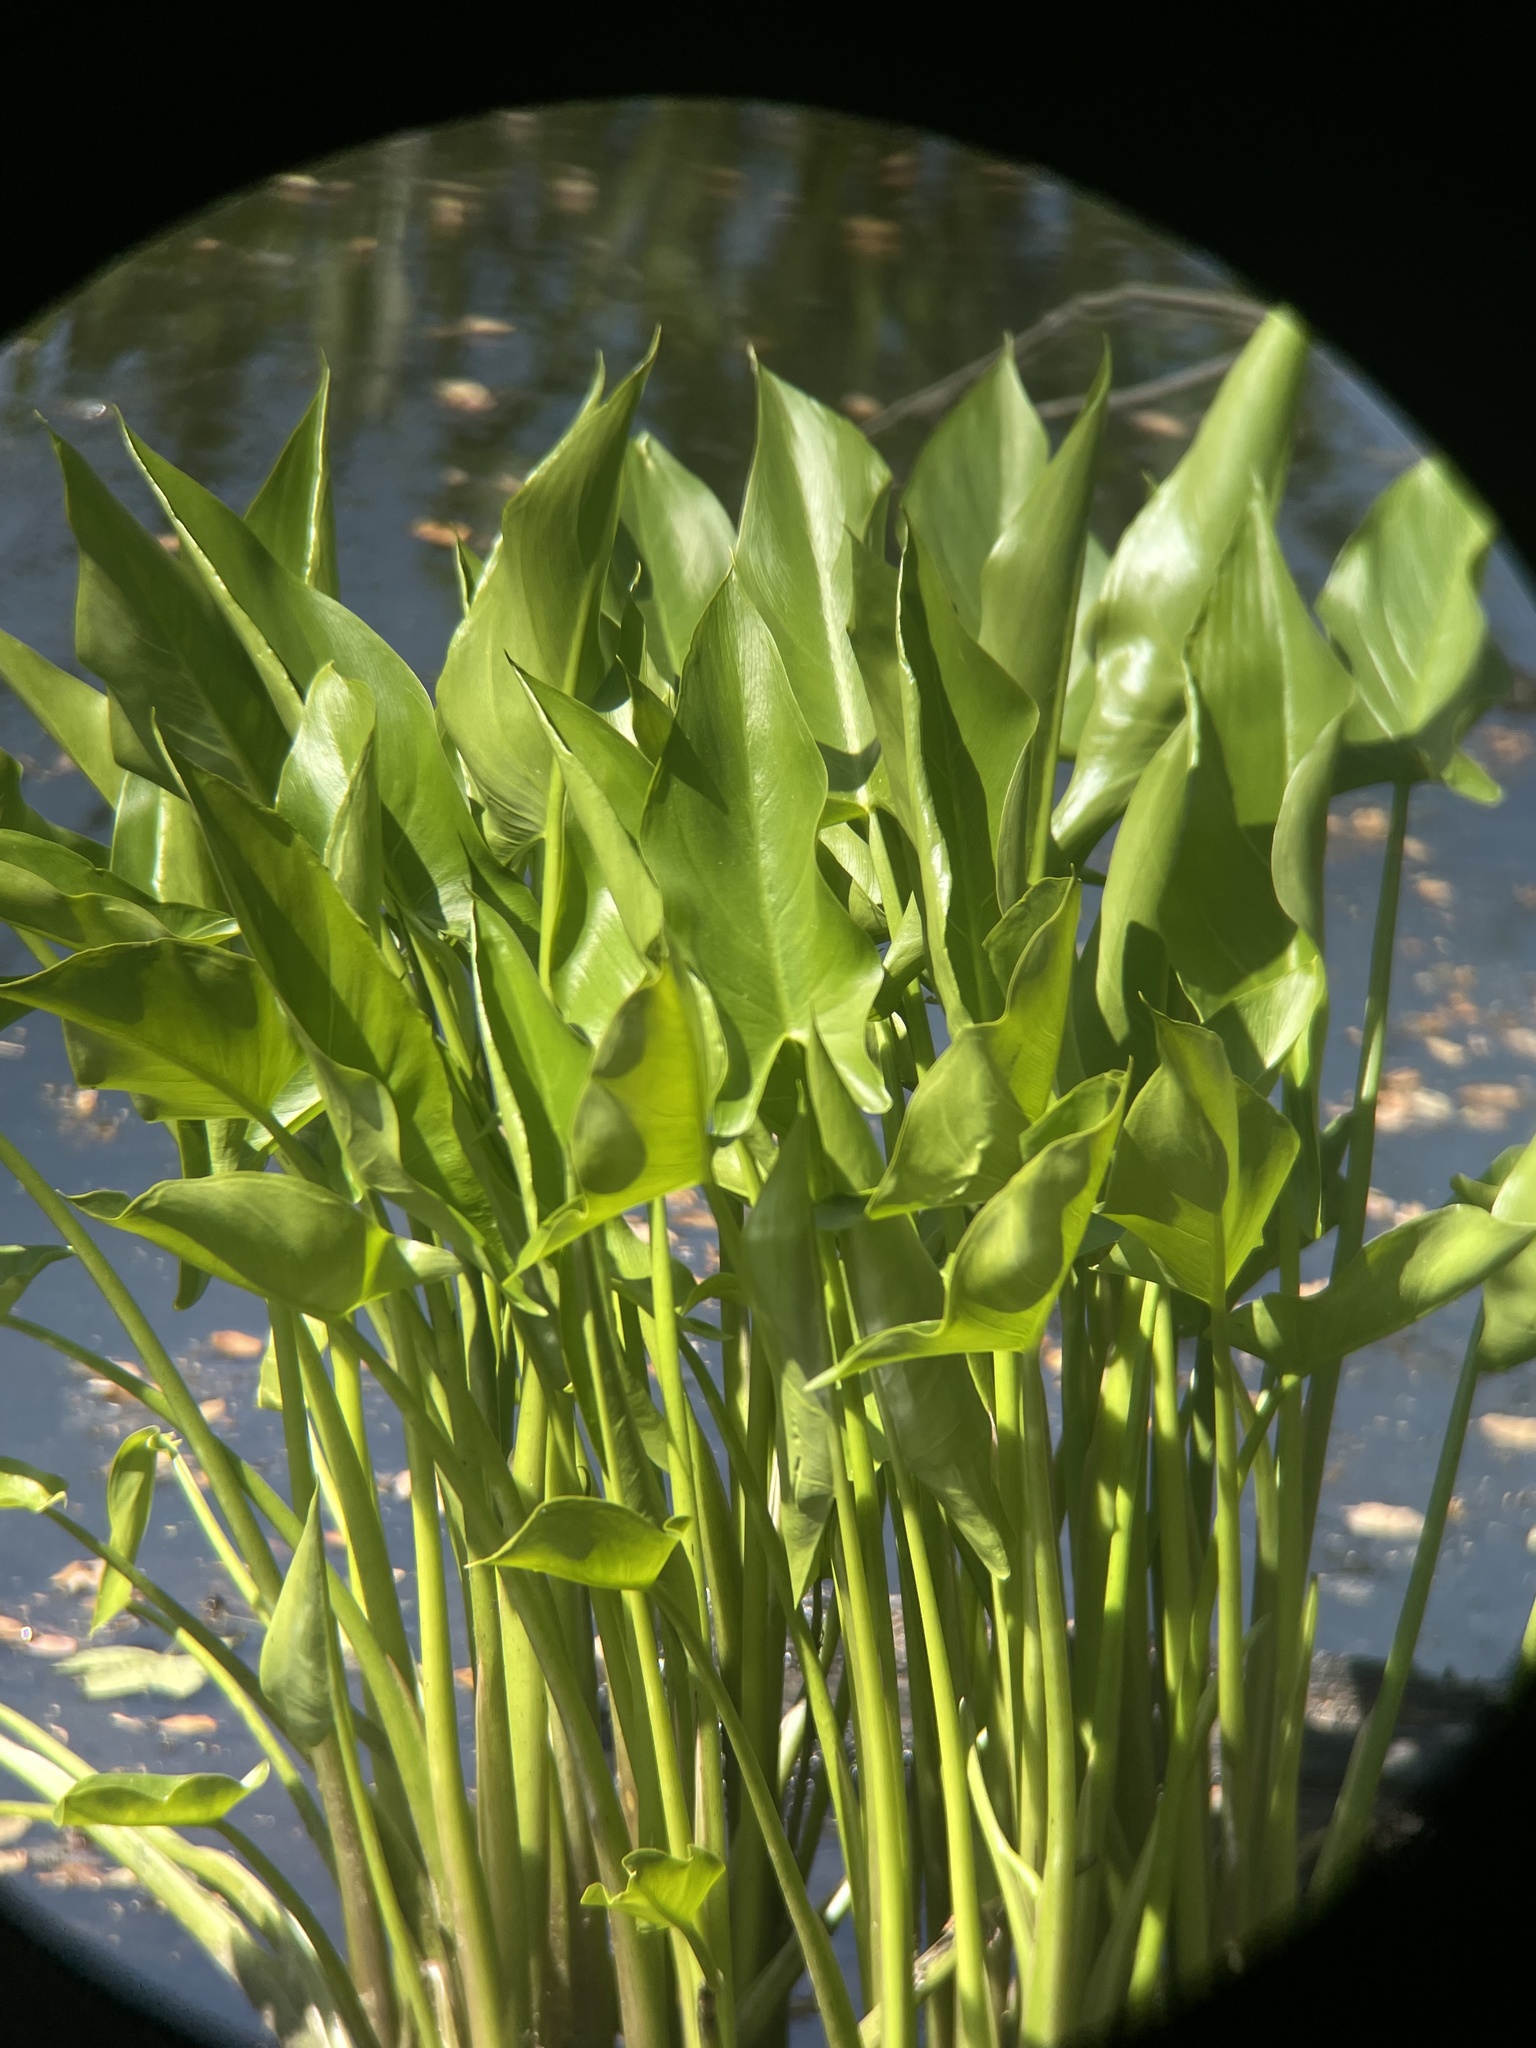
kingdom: Plantae
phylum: Tracheophyta
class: Liliopsida
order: Alismatales
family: Araceae
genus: Peltandra
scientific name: Peltandra virginica
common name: Arrow arum
